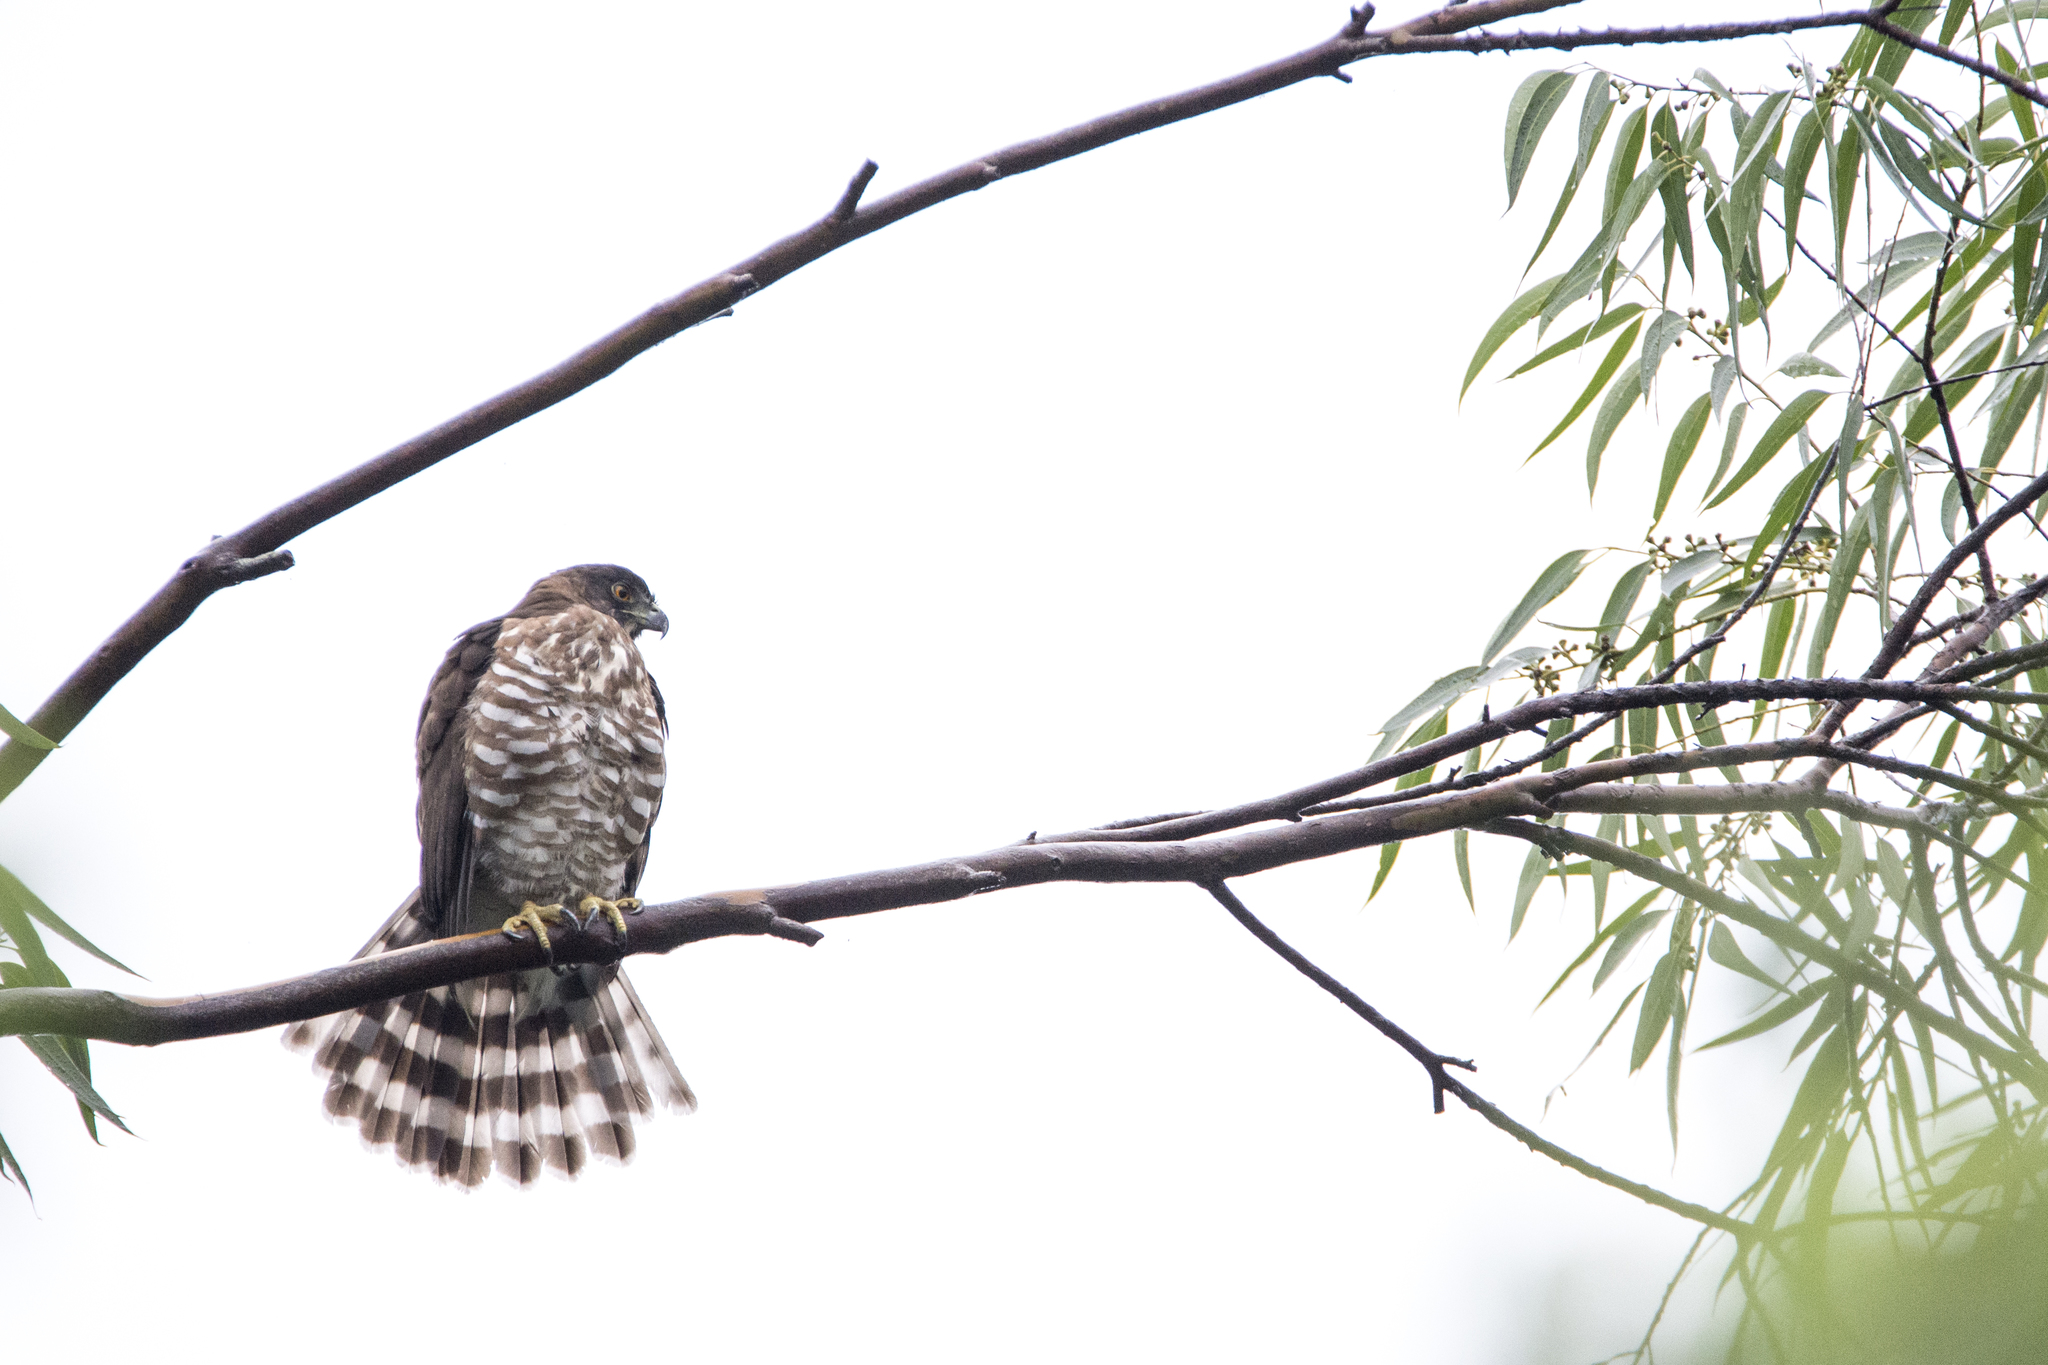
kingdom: Animalia
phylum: Chordata
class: Aves
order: Accipitriformes
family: Accipitridae
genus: Accipiter
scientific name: Accipiter trivirgatus
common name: Crested goshawk
